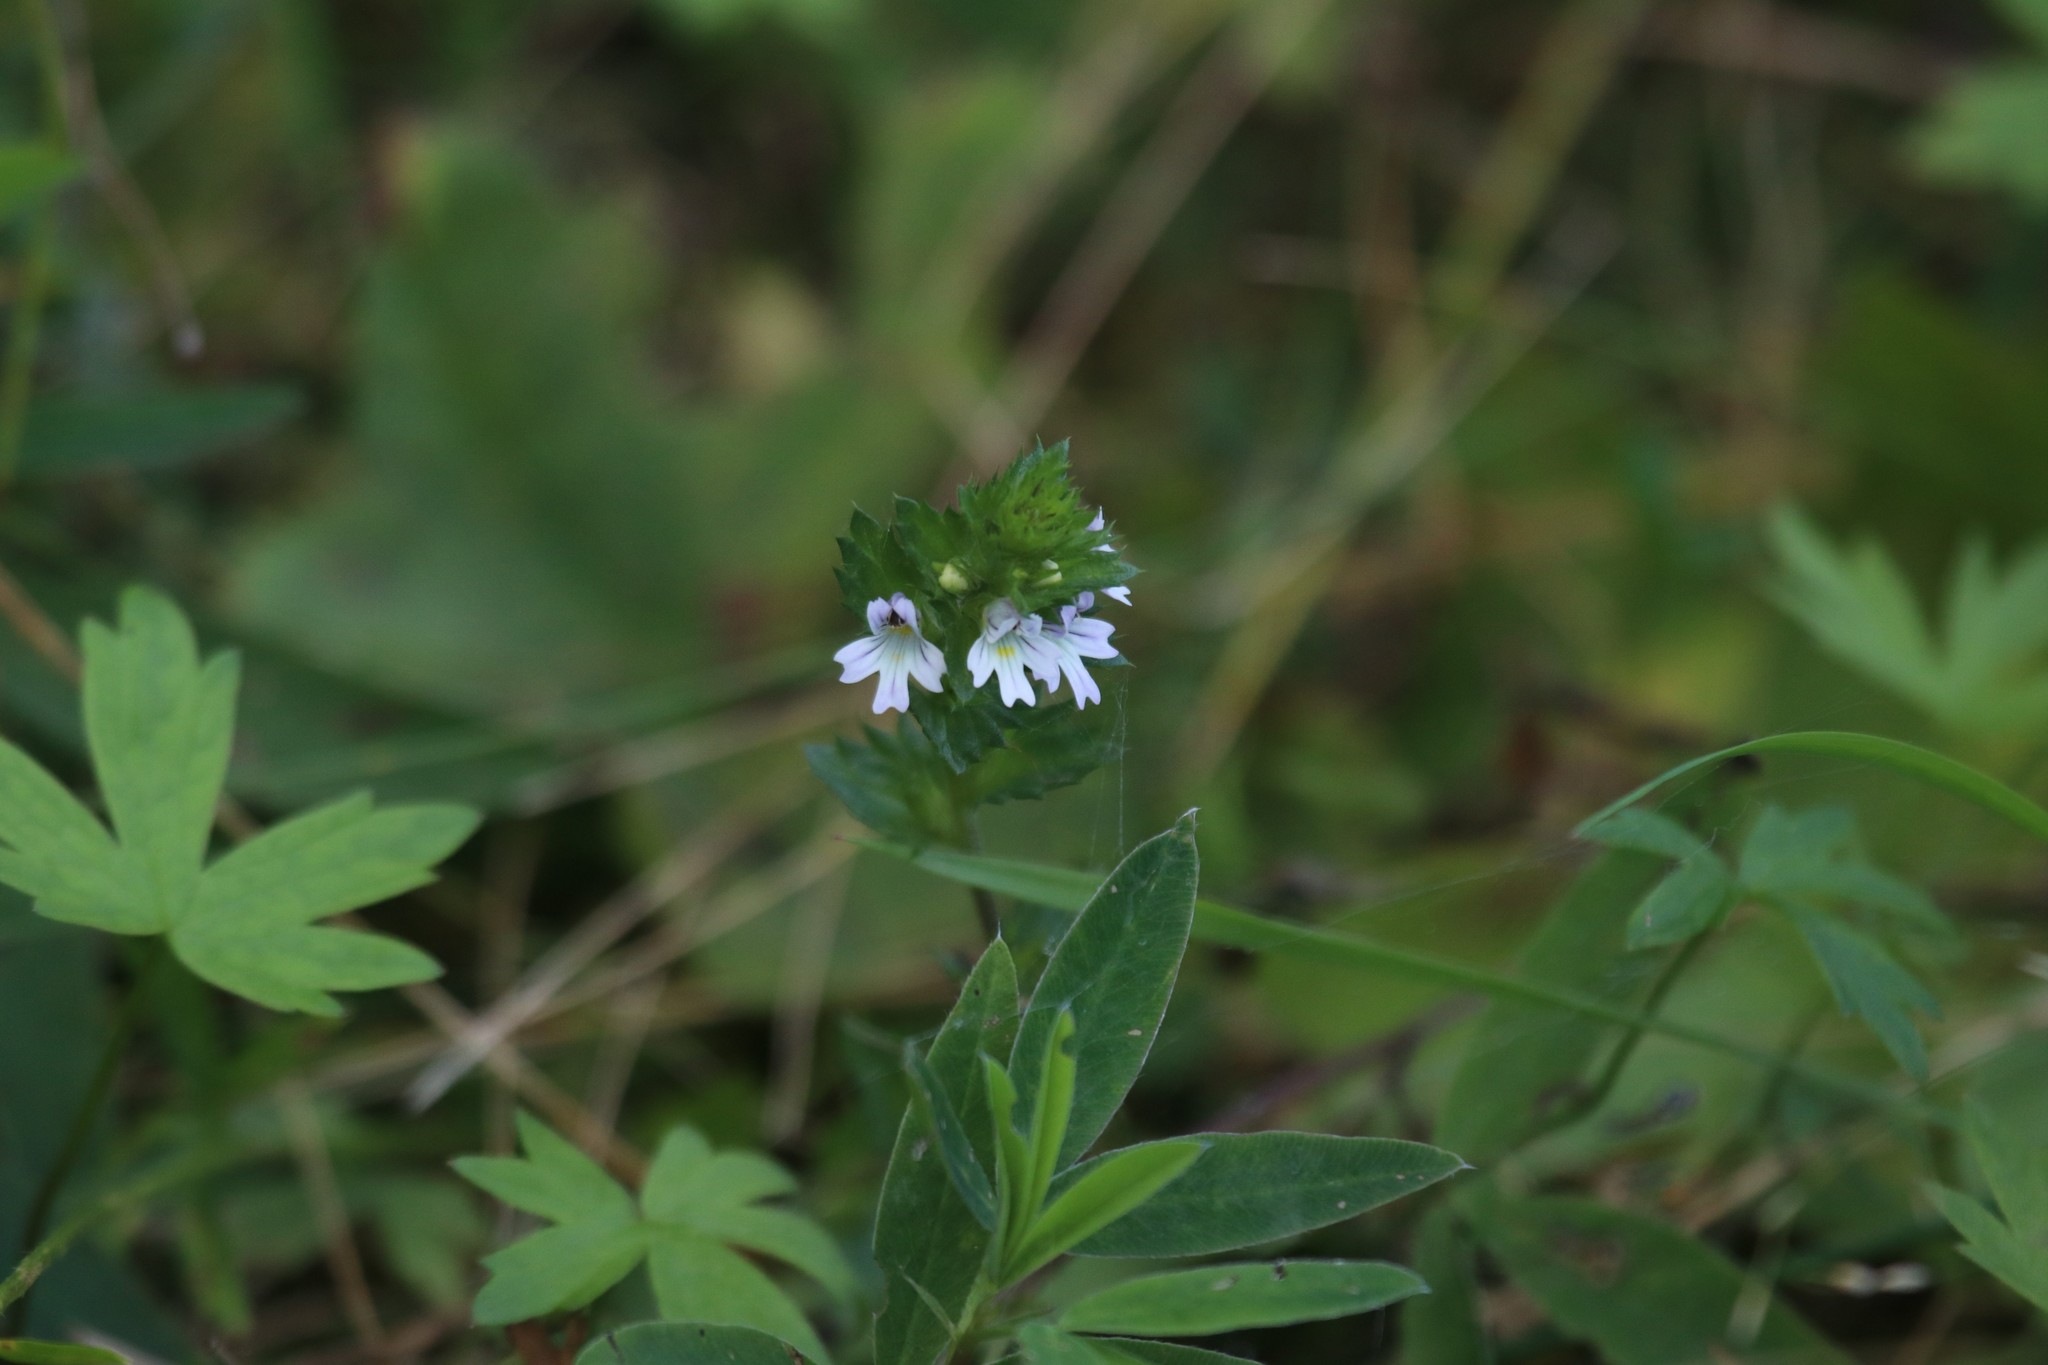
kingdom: Plantae
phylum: Tracheophyta
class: Magnoliopsida
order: Lamiales
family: Orobanchaceae
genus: Euphrasia
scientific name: Euphrasia
